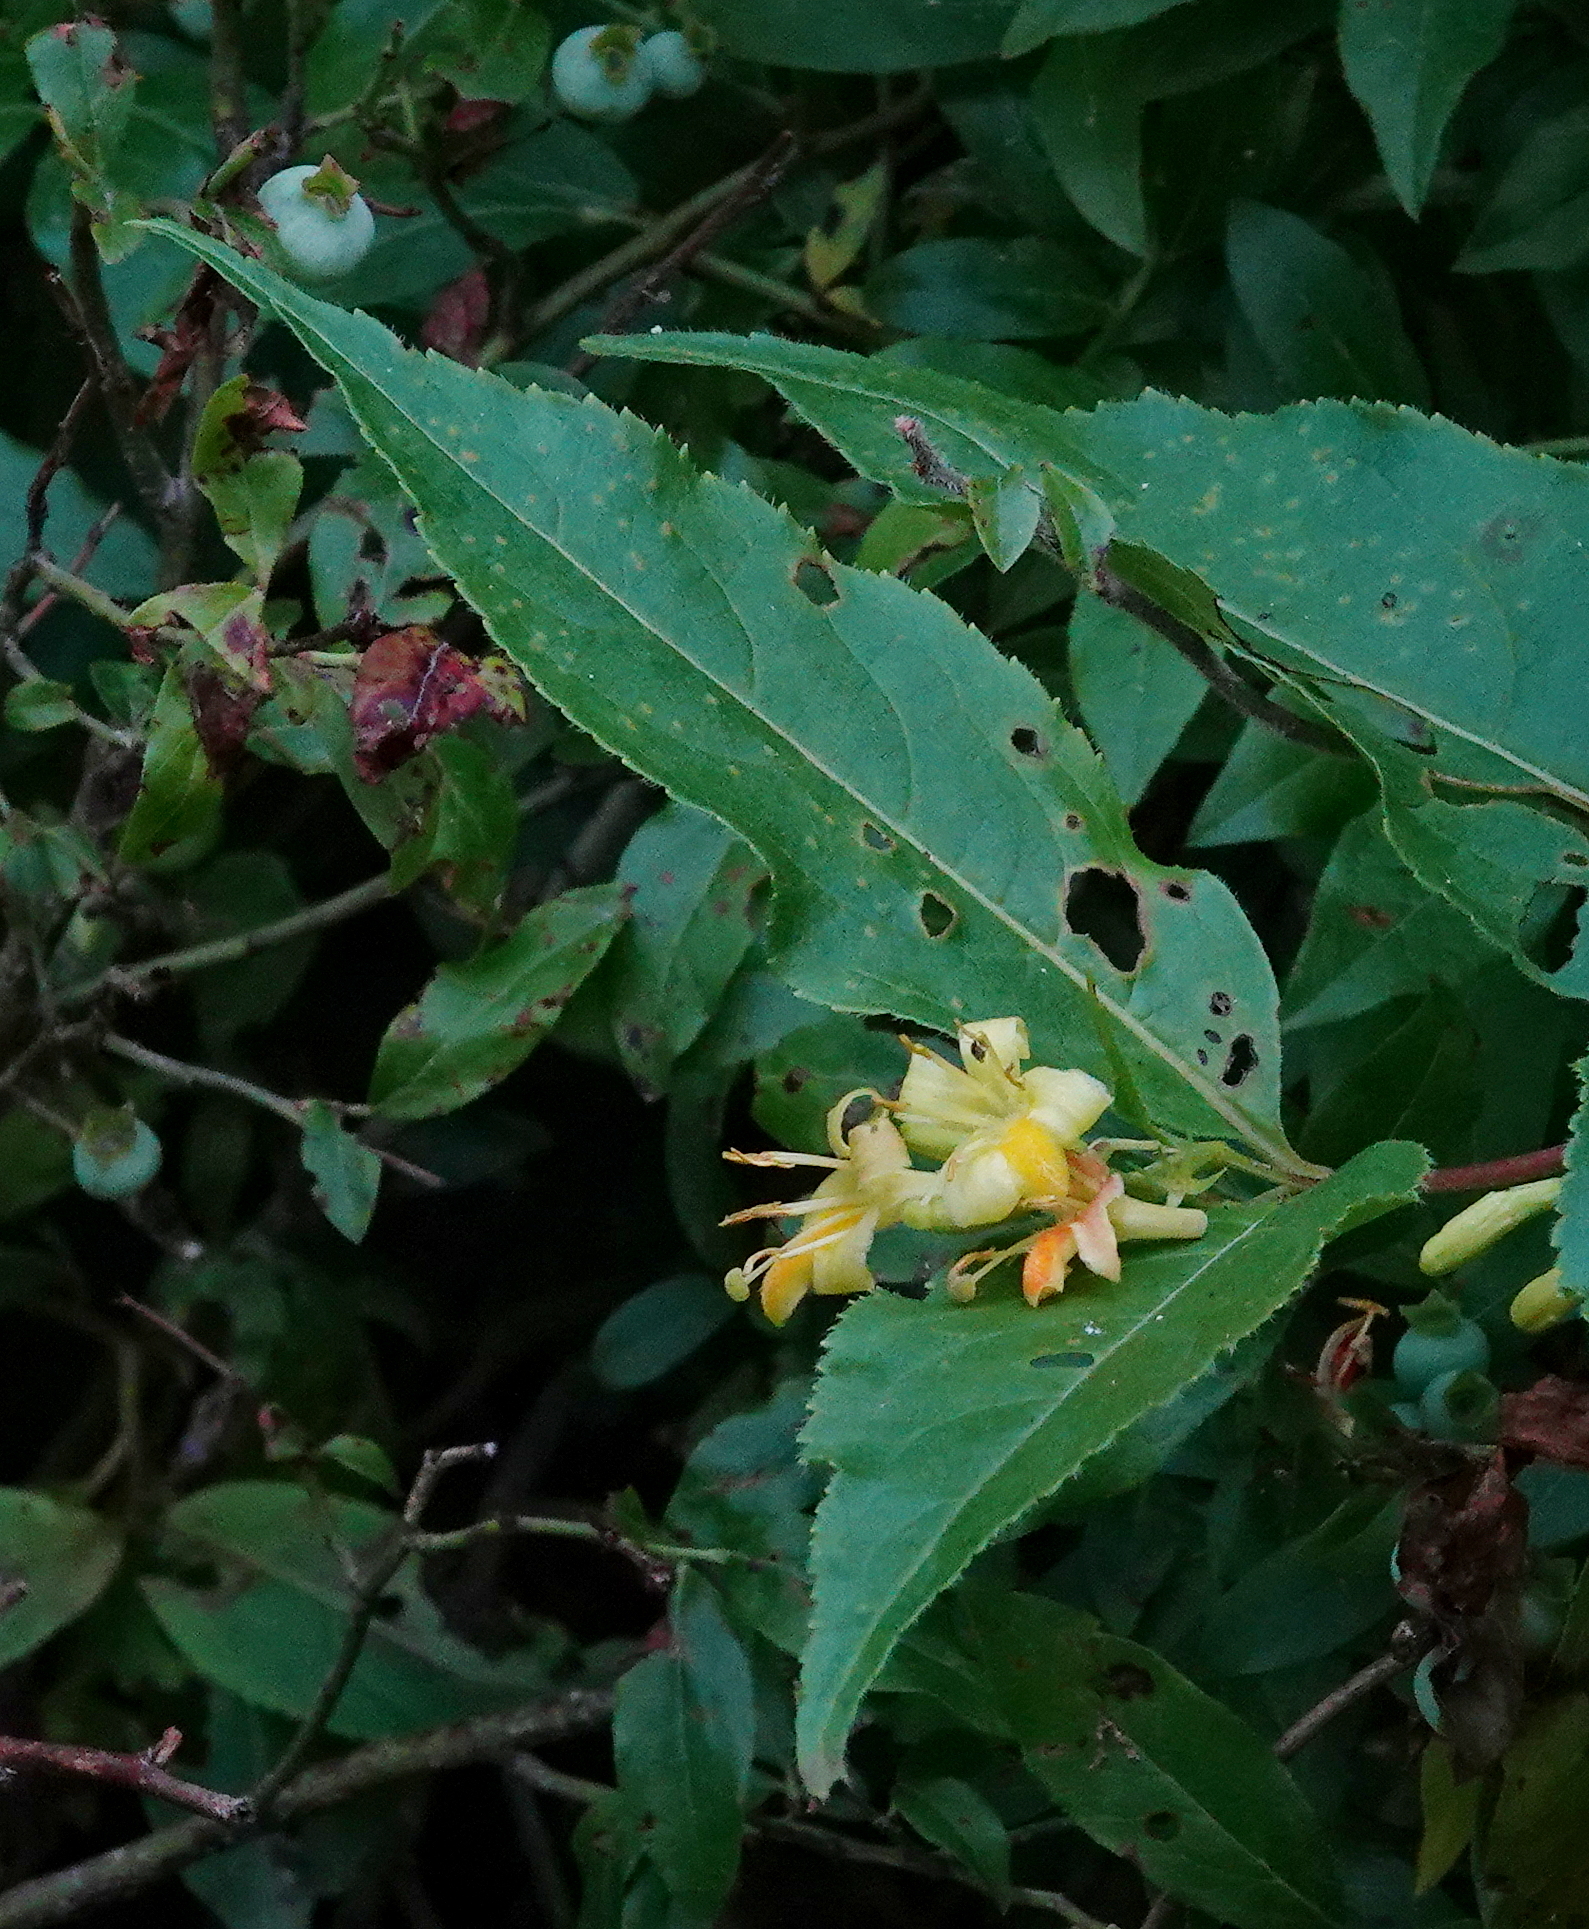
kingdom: Plantae
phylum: Tracheophyta
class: Magnoliopsida
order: Dipsacales
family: Caprifoliaceae
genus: Diervilla
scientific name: Diervilla lonicera
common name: Bush-honeysuckle
